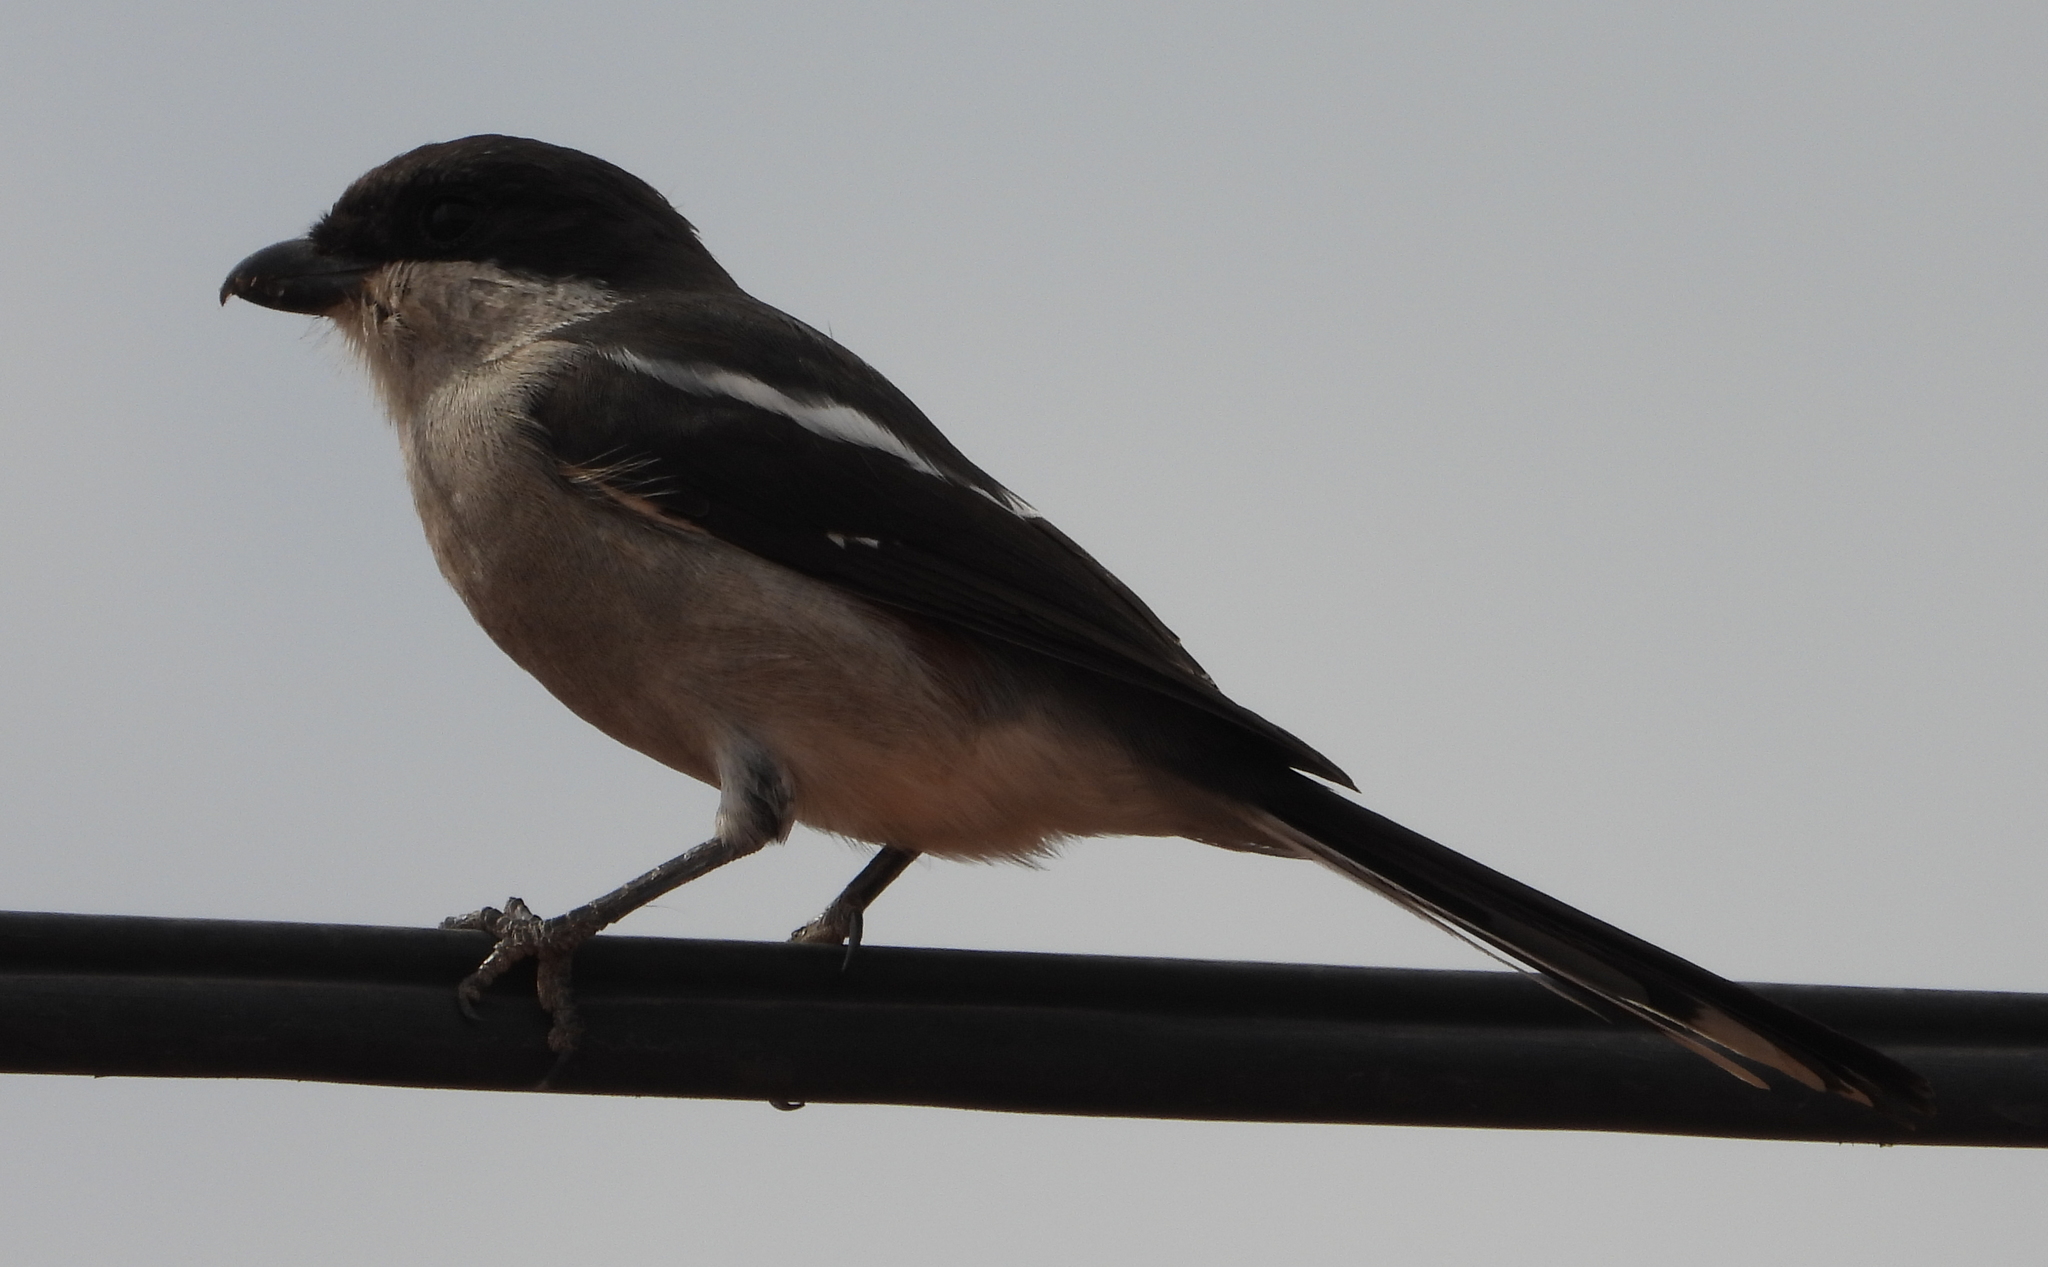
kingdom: Animalia
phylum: Chordata
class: Aves
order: Passeriformes
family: Laniidae
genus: Lanius
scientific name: Lanius collaris
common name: Southern fiscal
